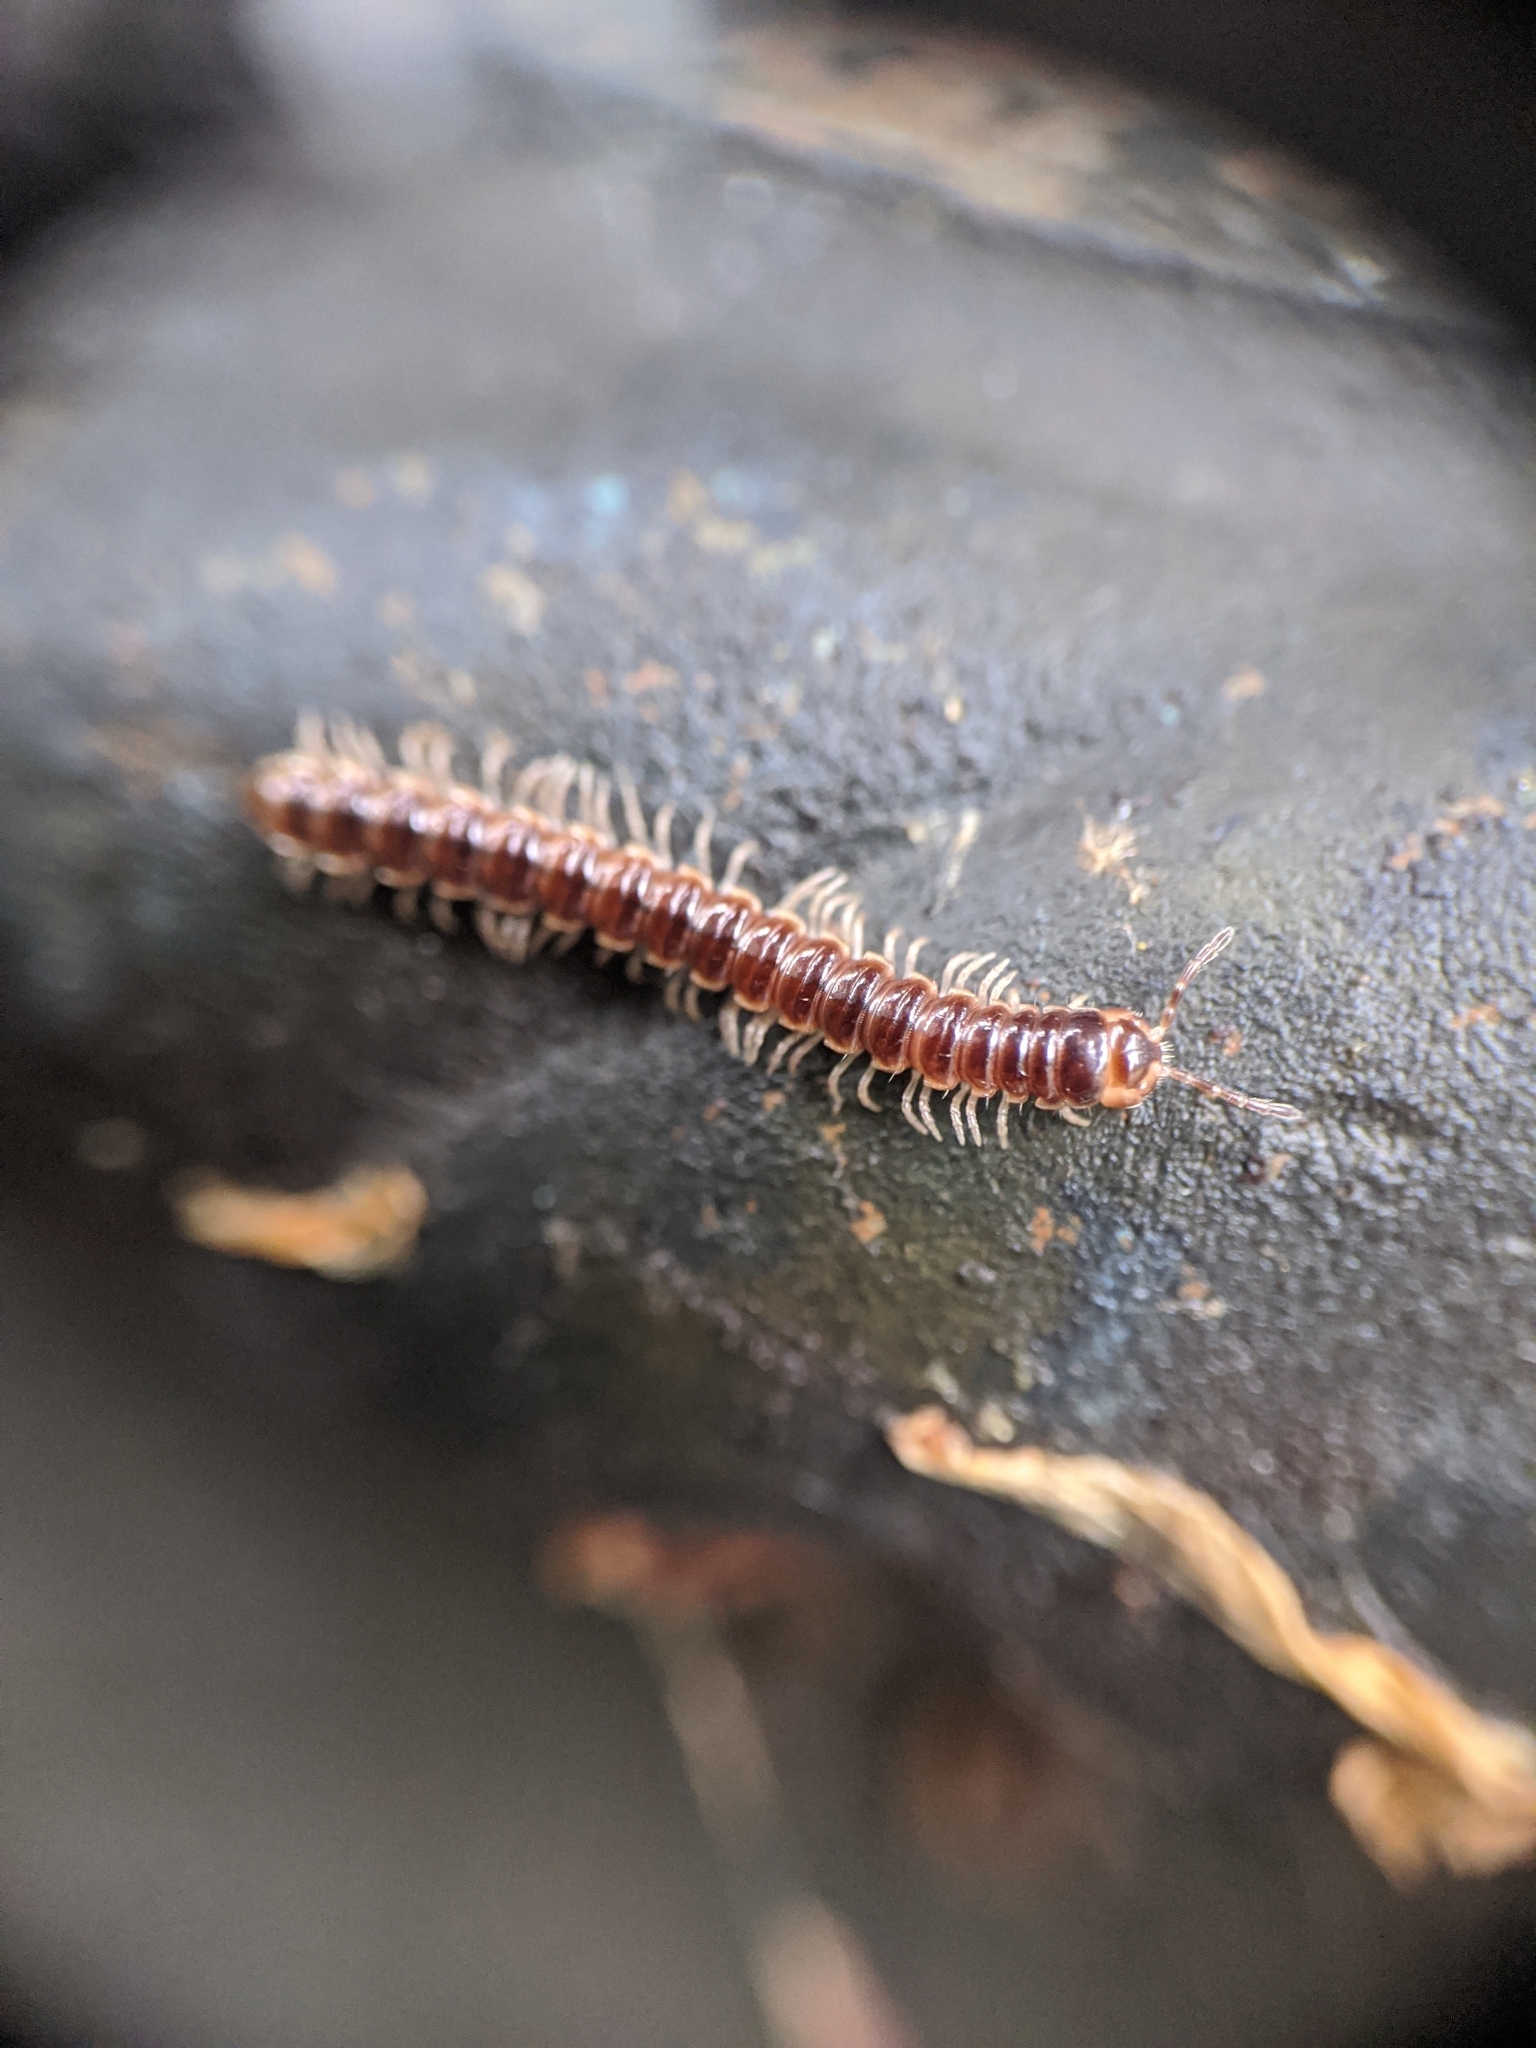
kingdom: Animalia
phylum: Arthropoda
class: Diplopoda
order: Polydesmida
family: Paradoxosomatidae
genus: Oxidus
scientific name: Oxidus gracilis
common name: Greenhouse millipede
